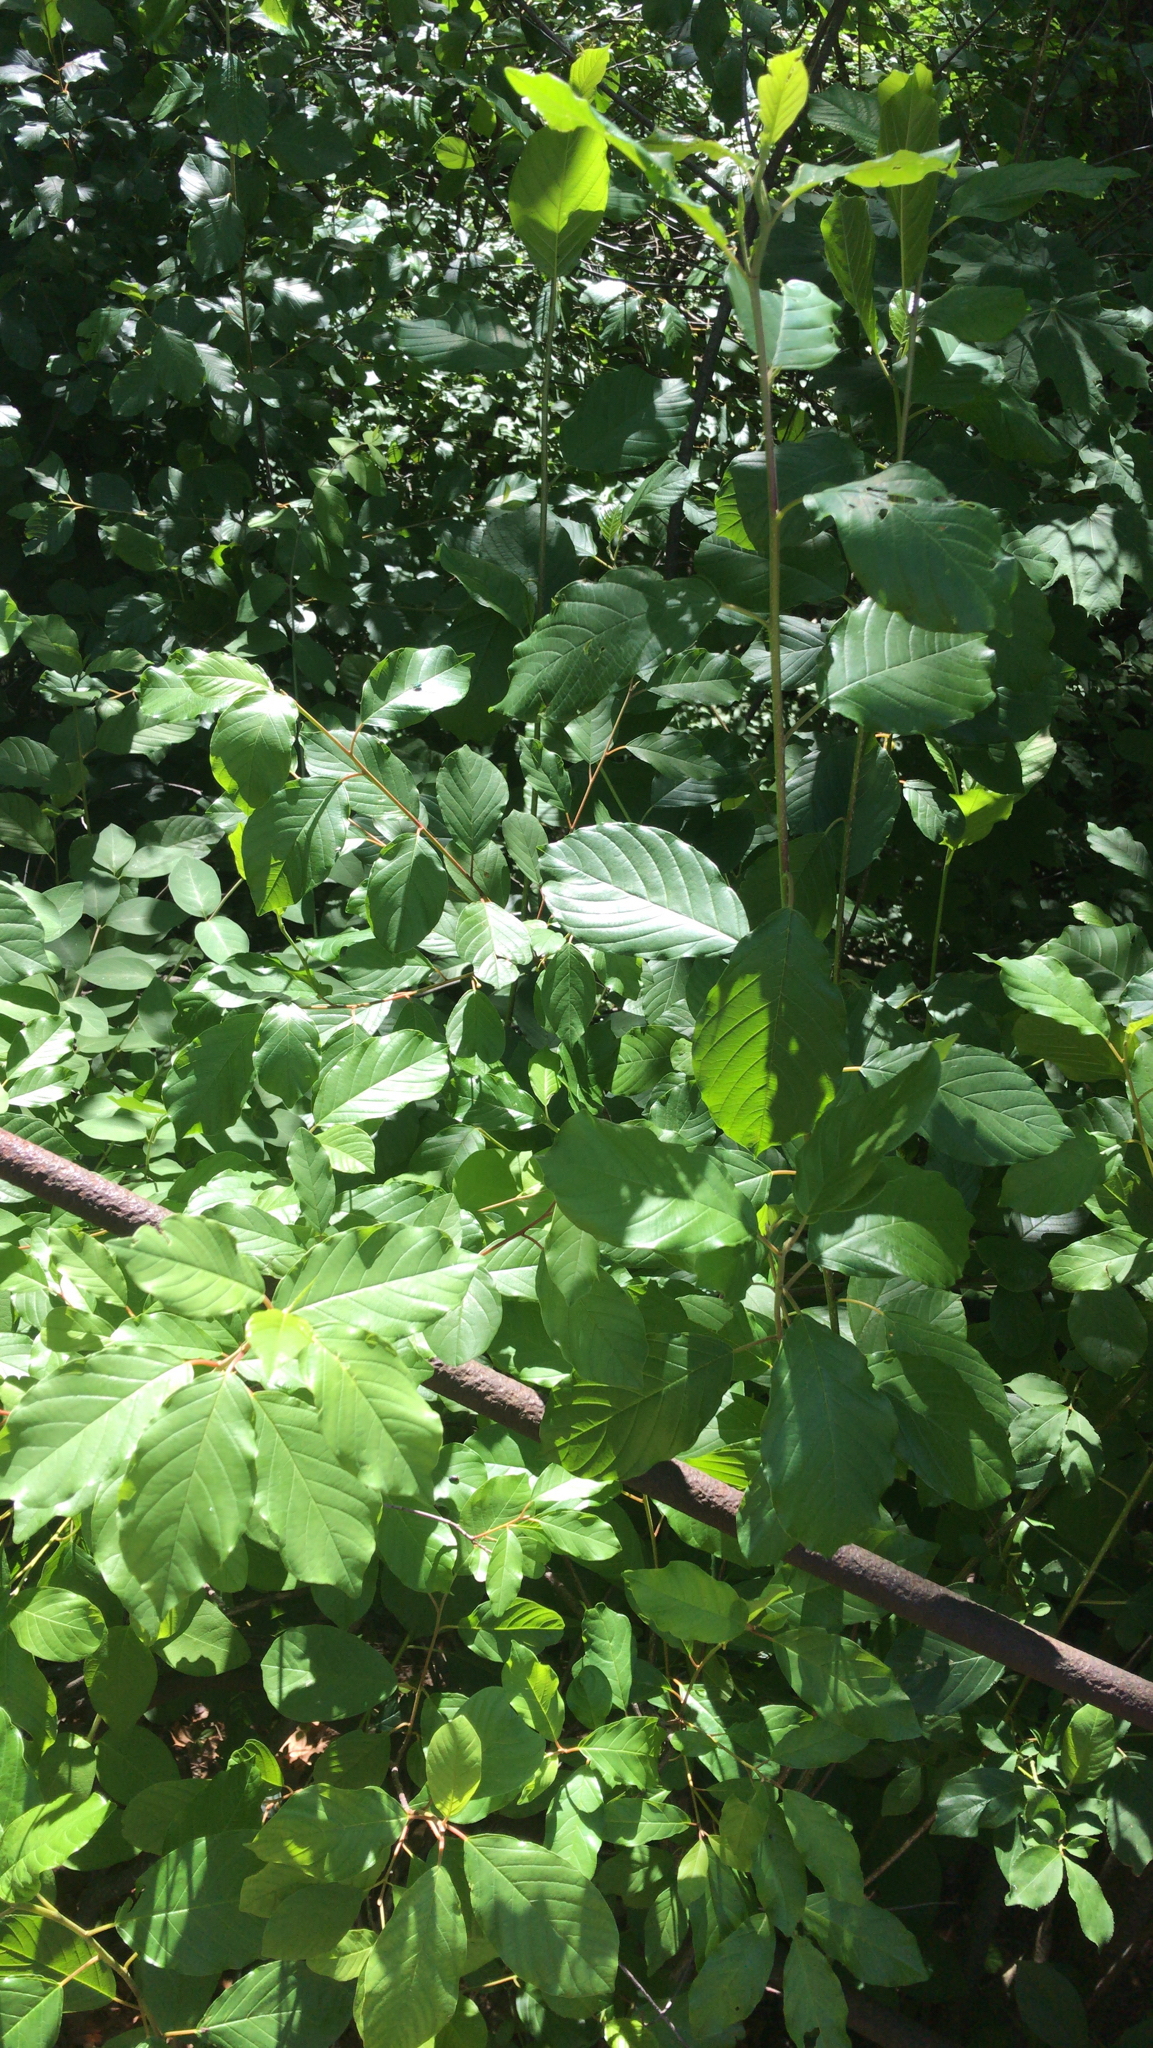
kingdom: Plantae
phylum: Tracheophyta
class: Magnoliopsida
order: Rosales
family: Rhamnaceae
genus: Frangula
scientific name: Frangula alnus
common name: Alder buckthorn
